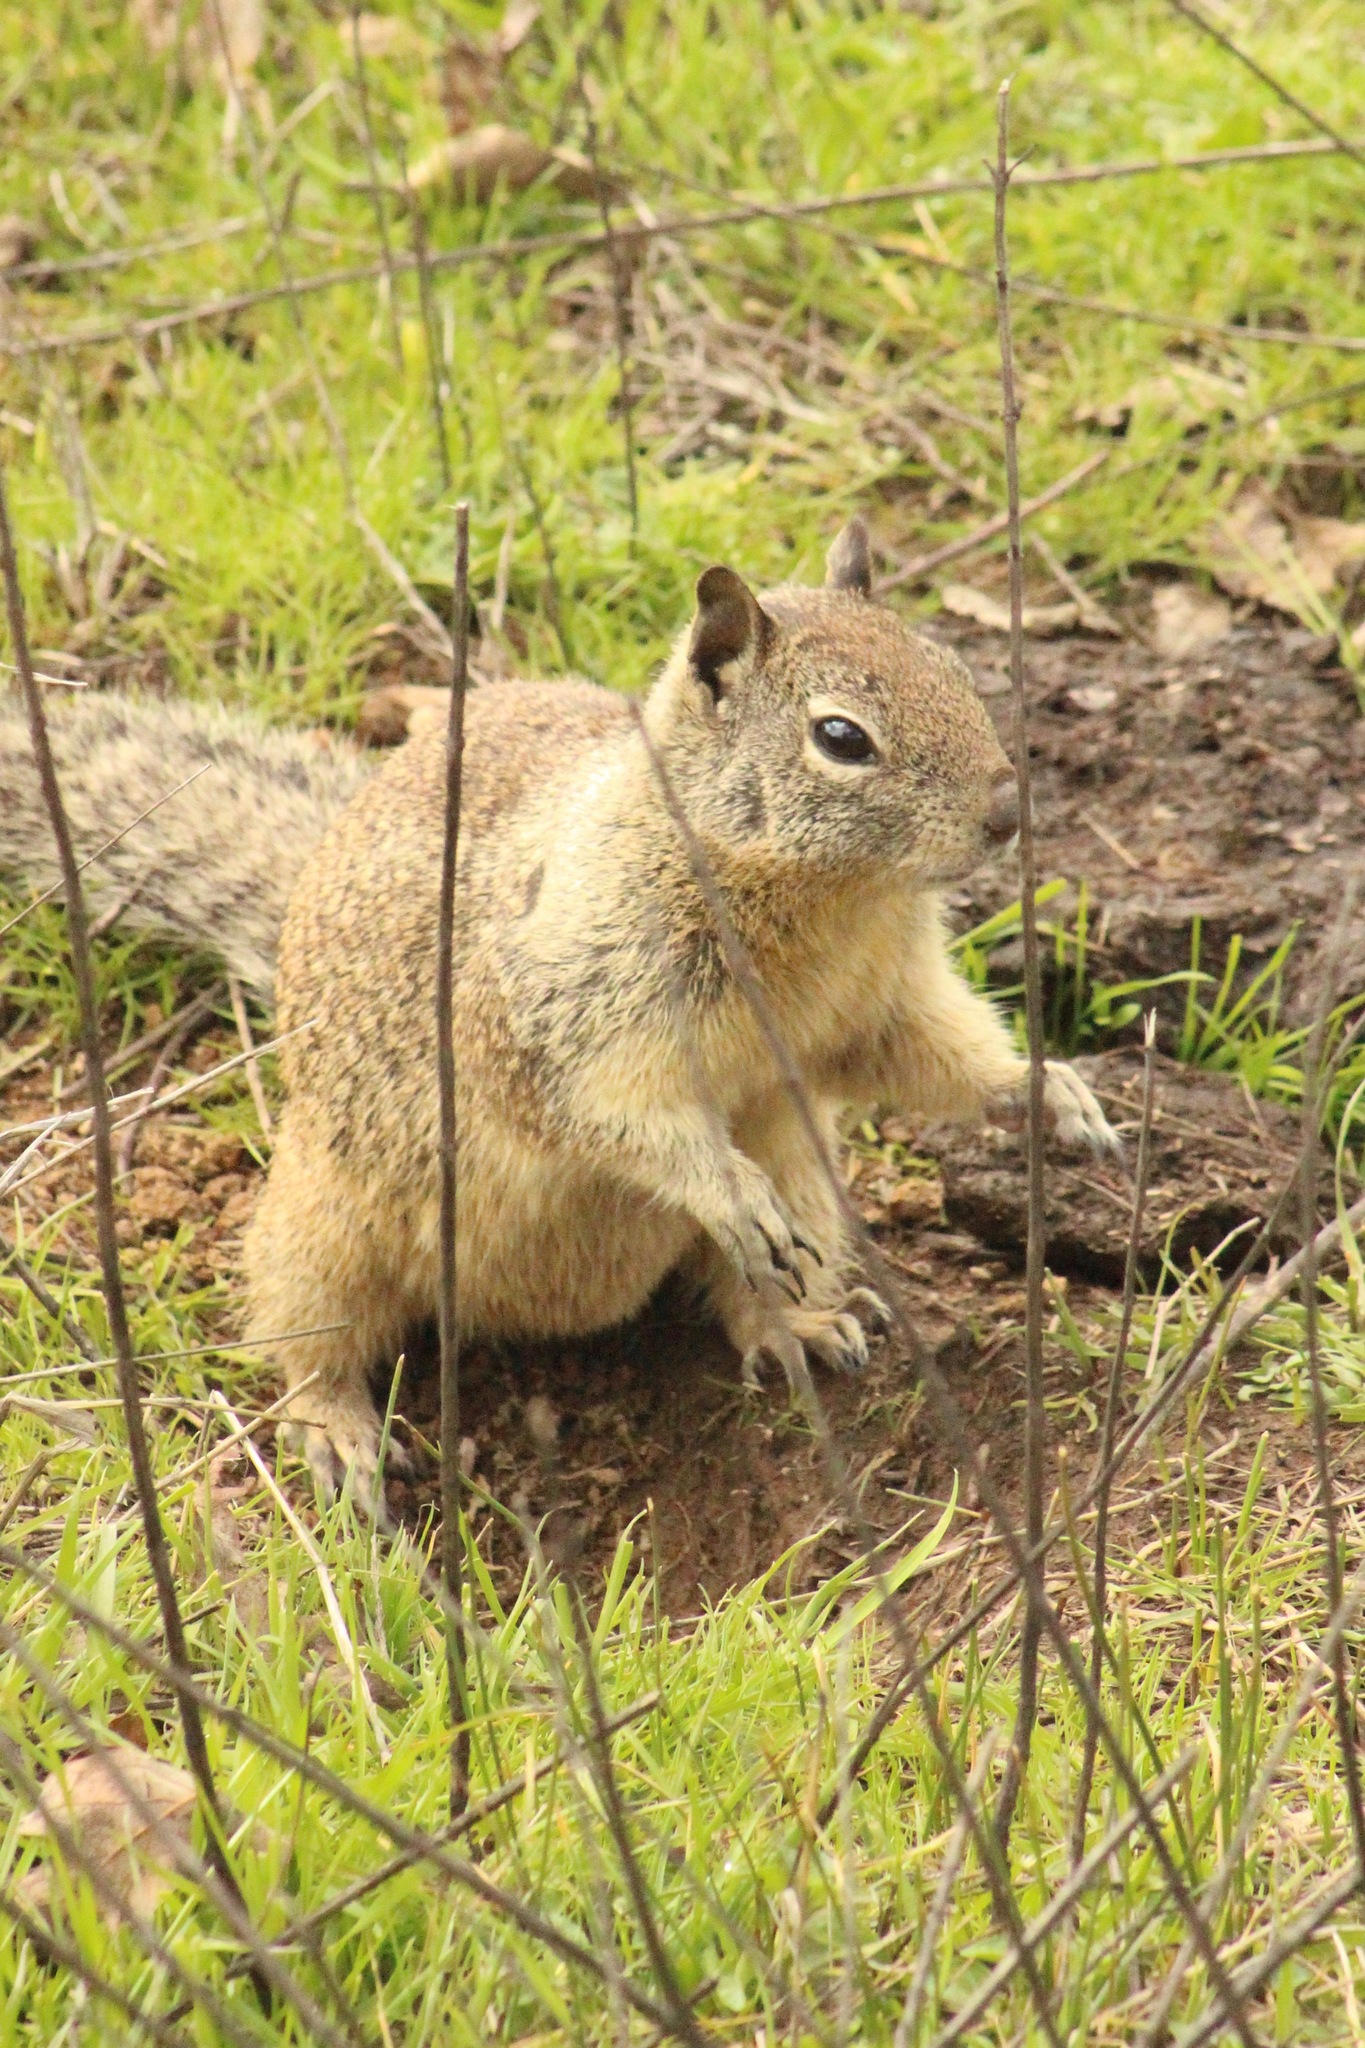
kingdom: Animalia
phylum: Chordata
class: Mammalia
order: Rodentia
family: Sciuridae
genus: Otospermophilus
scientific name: Otospermophilus beecheyi
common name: California ground squirrel
